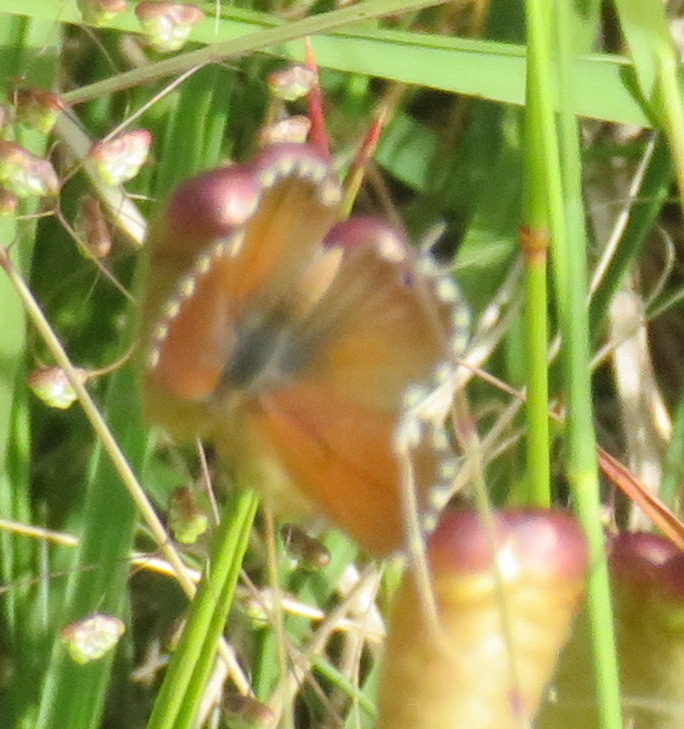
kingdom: Animalia
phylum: Arthropoda
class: Insecta
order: Lepidoptera
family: Lycaenidae
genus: Cacyreus
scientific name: Cacyreus fracta
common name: Water bronze
